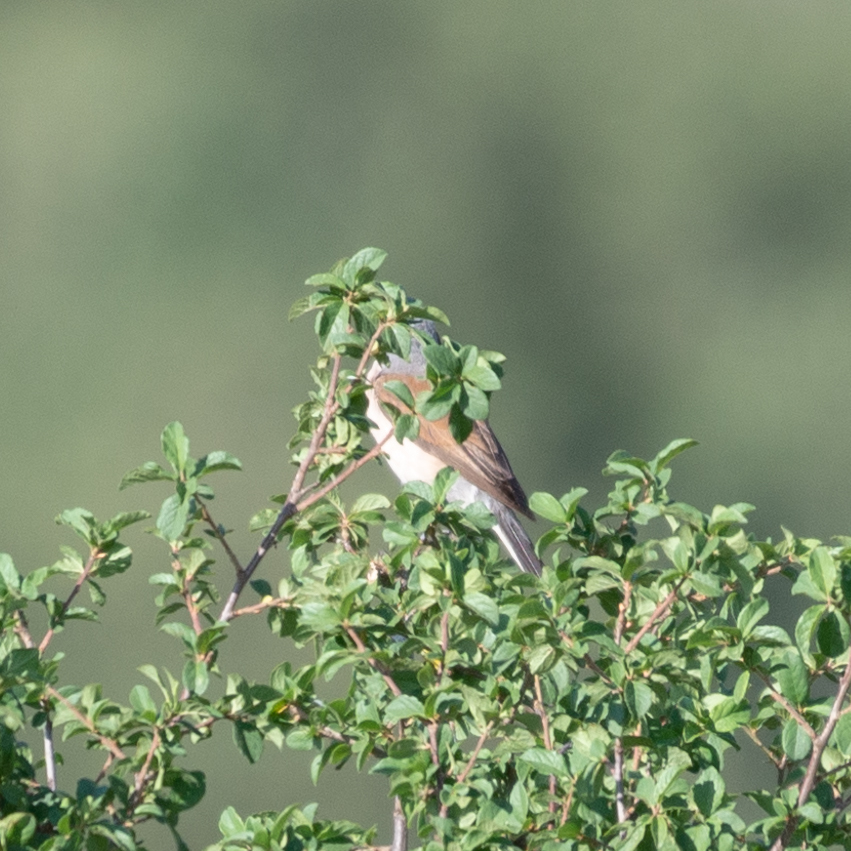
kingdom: Animalia
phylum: Chordata
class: Aves
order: Passeriformes
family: Laniidae
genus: Lanius
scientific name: Lanius collurio
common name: Red-backed shrike
